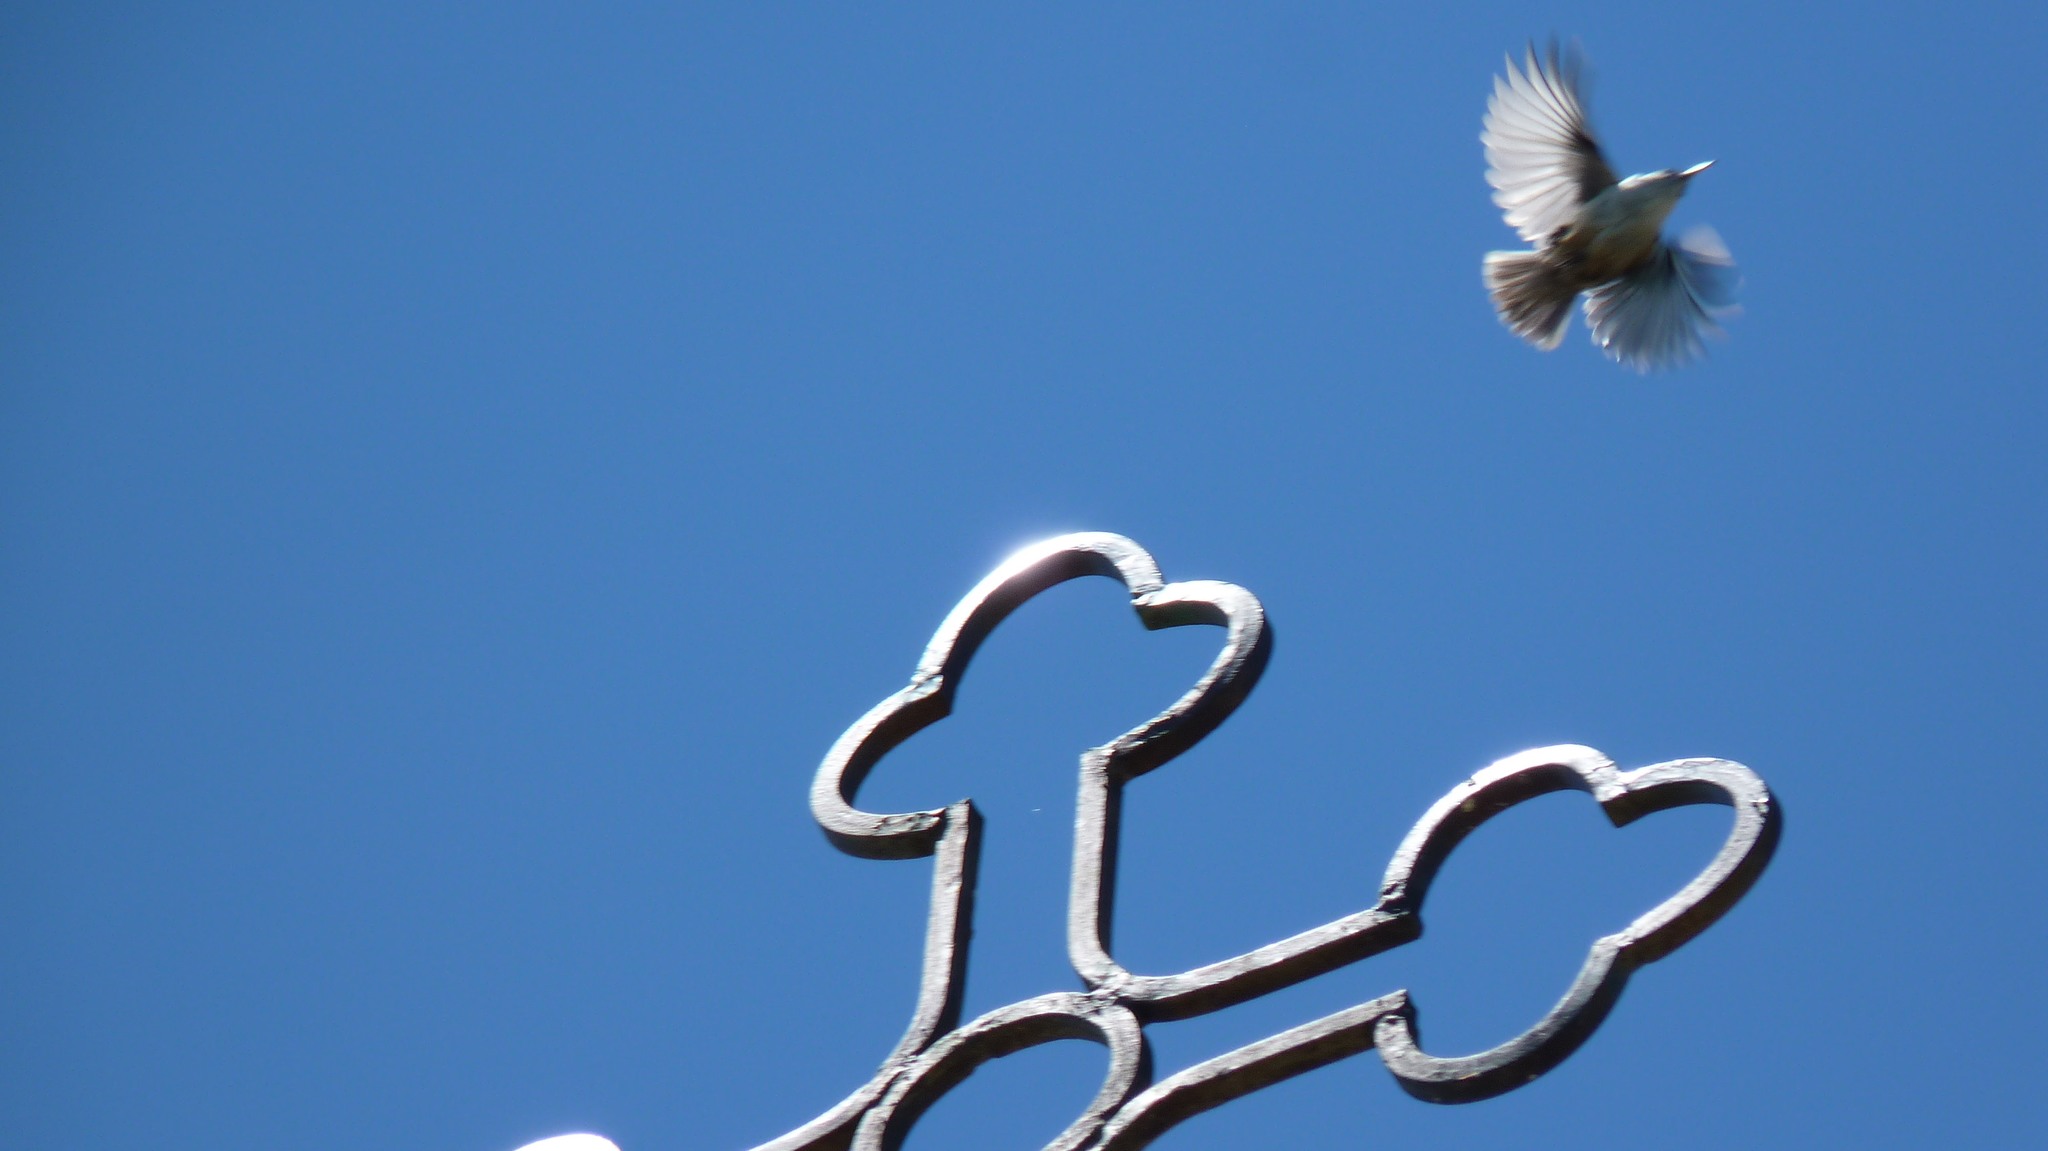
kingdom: Animalia
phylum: Chordata
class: Aves
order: Passeriformes
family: Sittidae
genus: Sitta
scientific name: Sitta neumayer
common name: Western rock nuthatch
